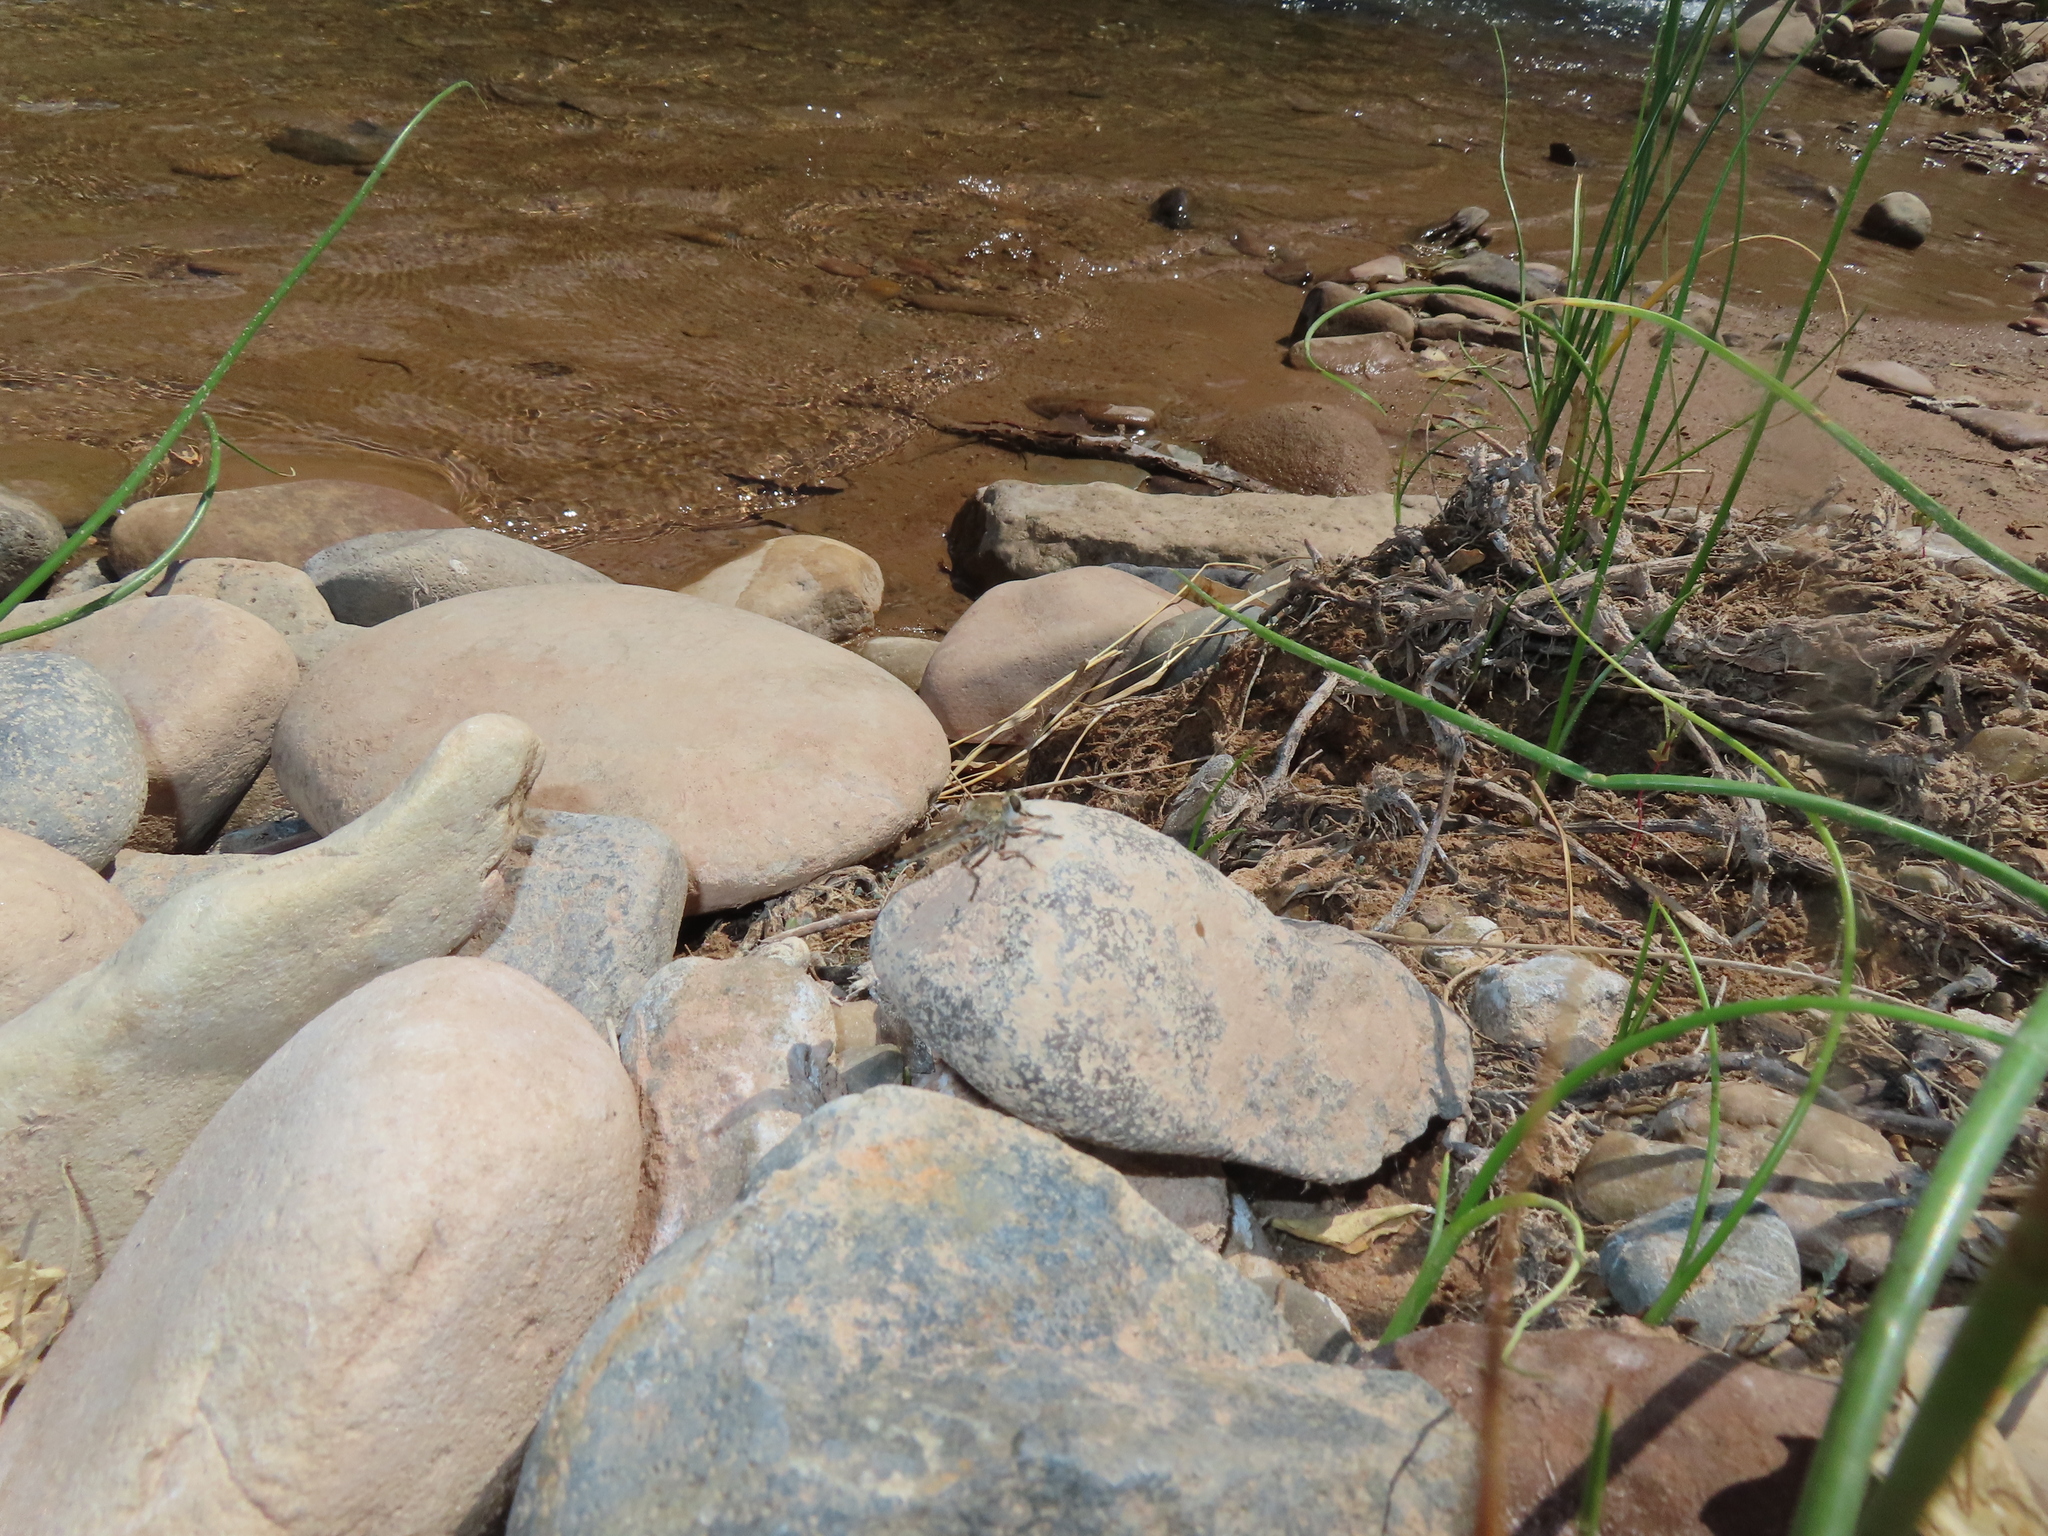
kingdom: Animalia
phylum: Arthropoda
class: Insecta
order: Diptera
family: Asilidae
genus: Efferia
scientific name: Efferia albibarbis
